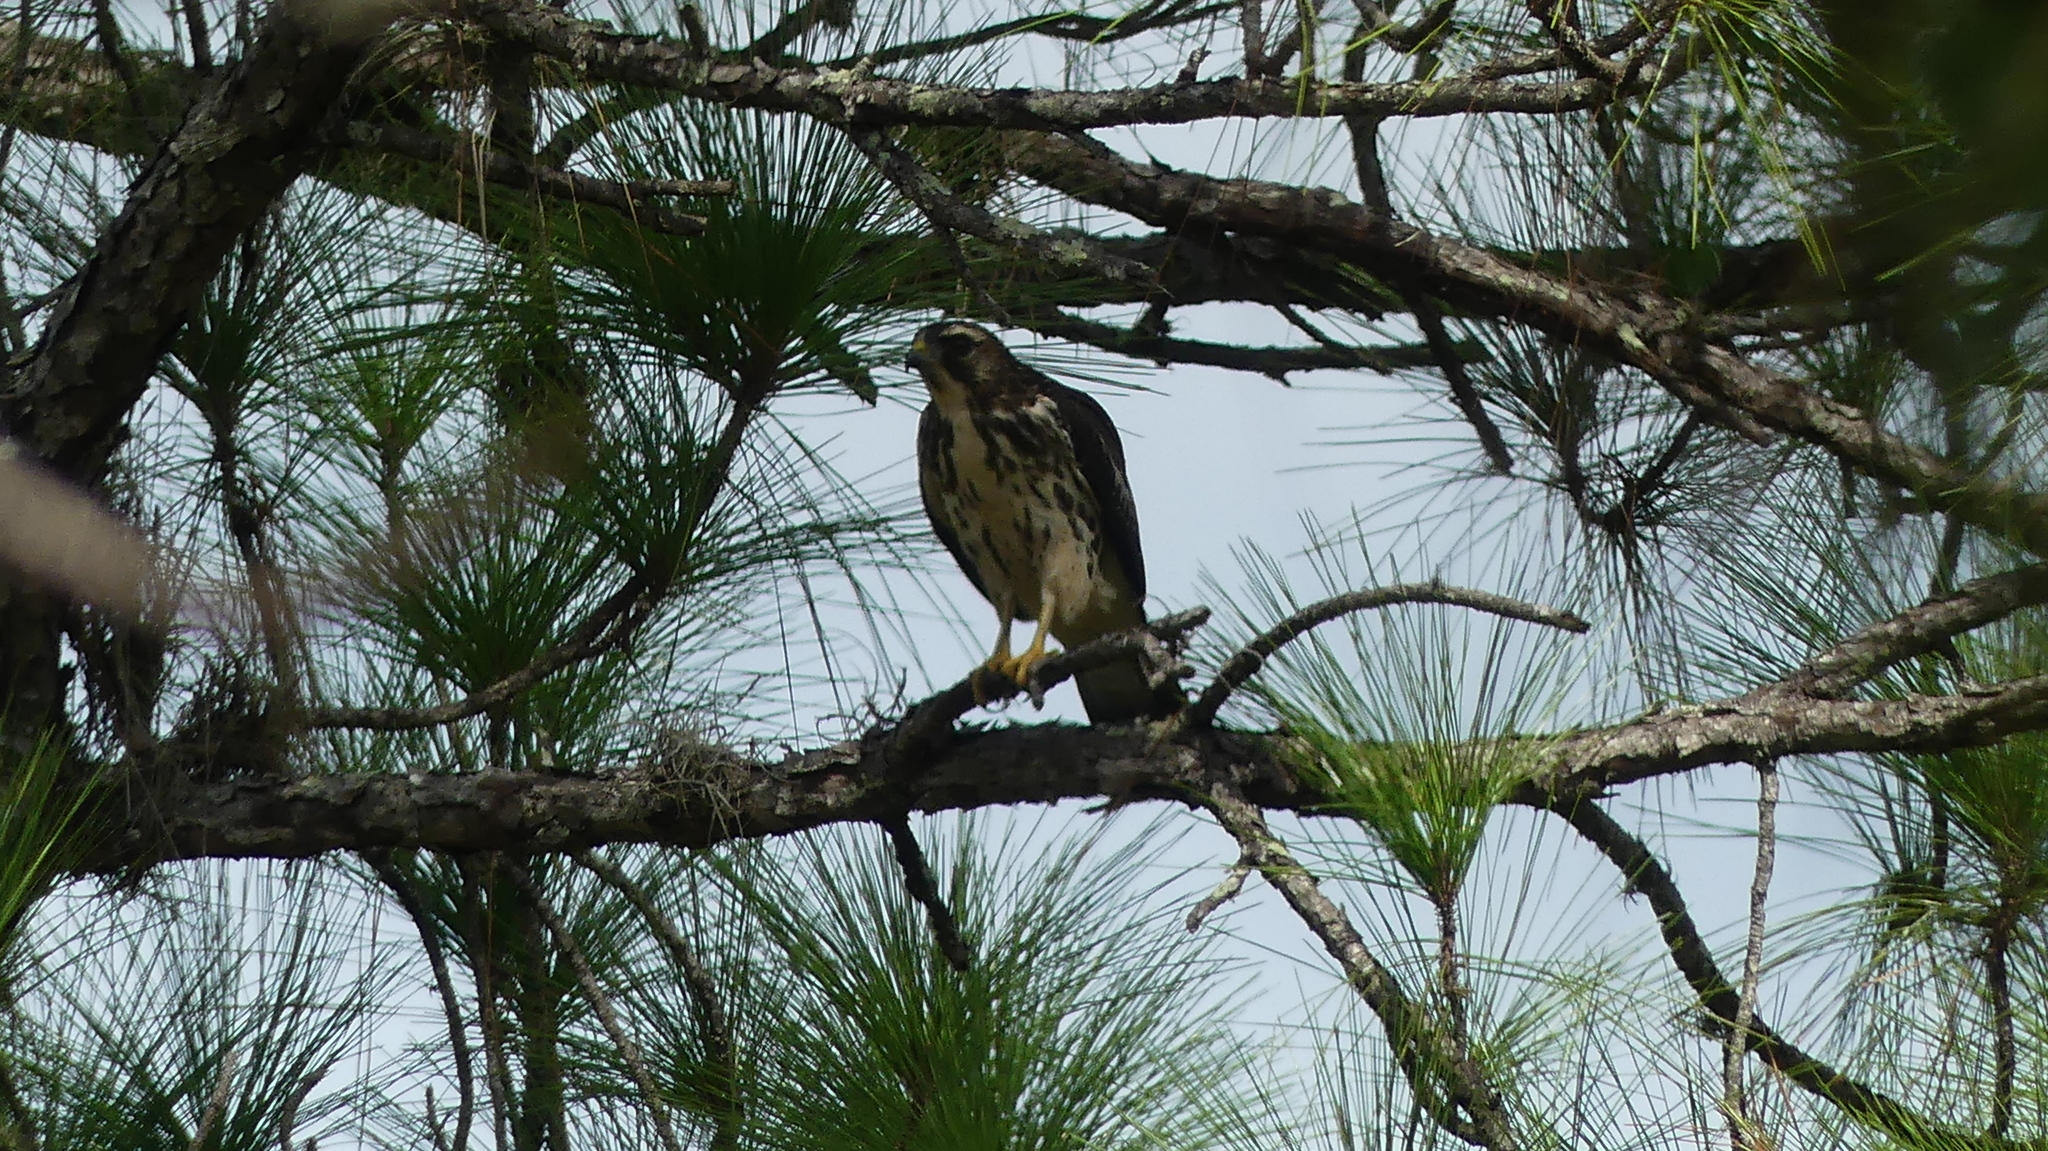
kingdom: Animalia
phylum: Chordata
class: Aves
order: Accipitriformes
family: Accipitridae
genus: Buteo
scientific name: Buteo lineatus
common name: Red-shouldered hawk
